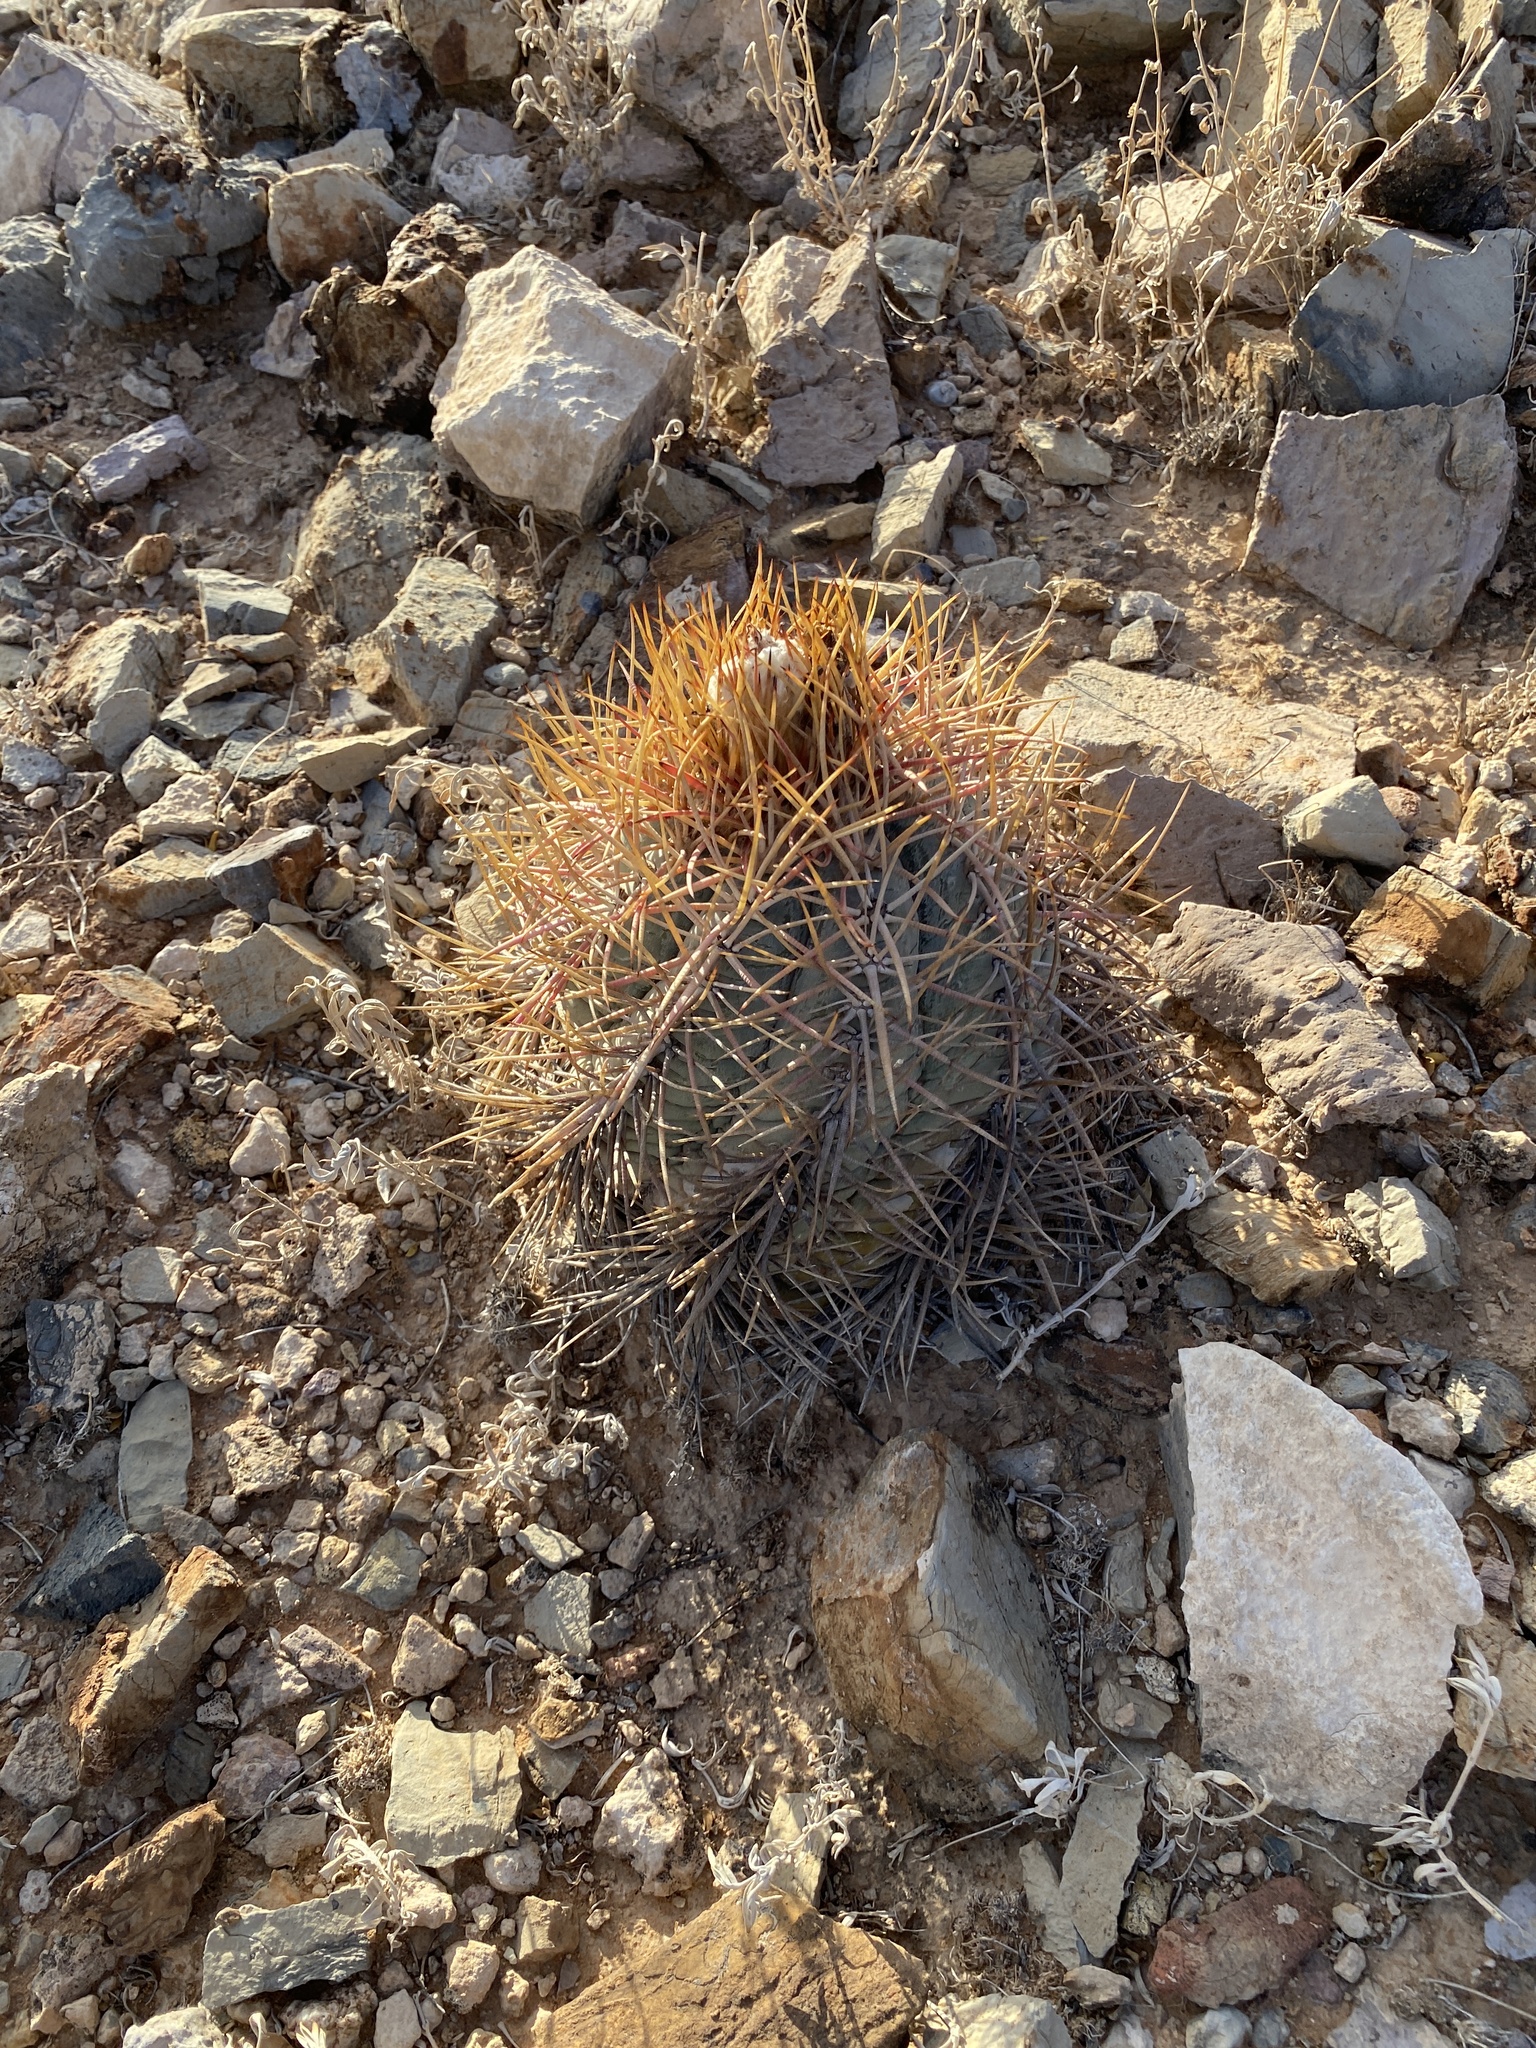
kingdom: Plantae
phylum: Tracheophyta
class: Magnoliopsida
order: Caryophyllales
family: Cactaceae
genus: Echinocactus
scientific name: Echinocactus horizonthalonius
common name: Devilshead
